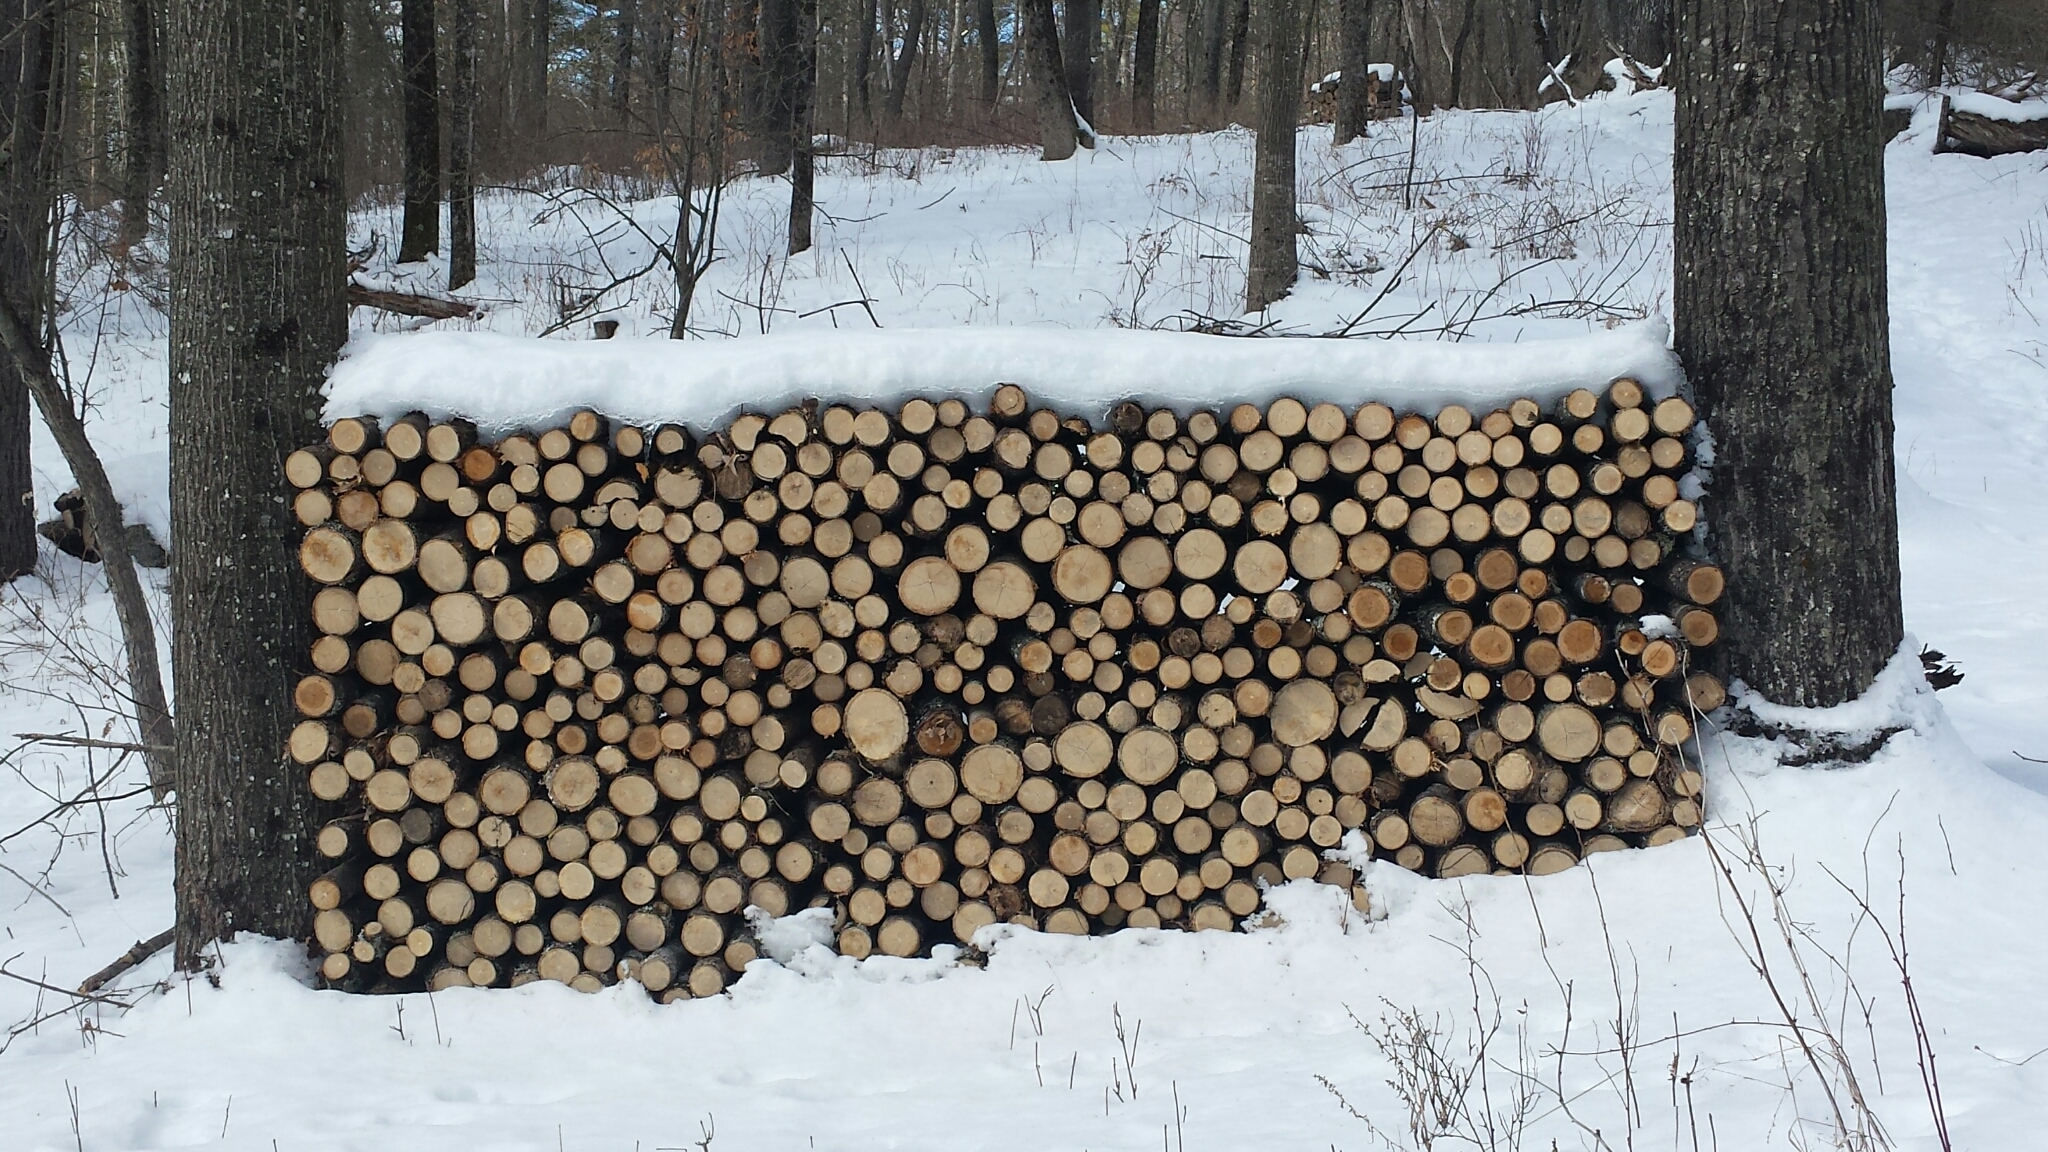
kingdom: Plantae
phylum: Tracheophyta
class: Magnoliopsida
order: Lamiales
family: Oleaceae
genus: Fraxinus
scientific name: Fraxinus americana
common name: White ash
